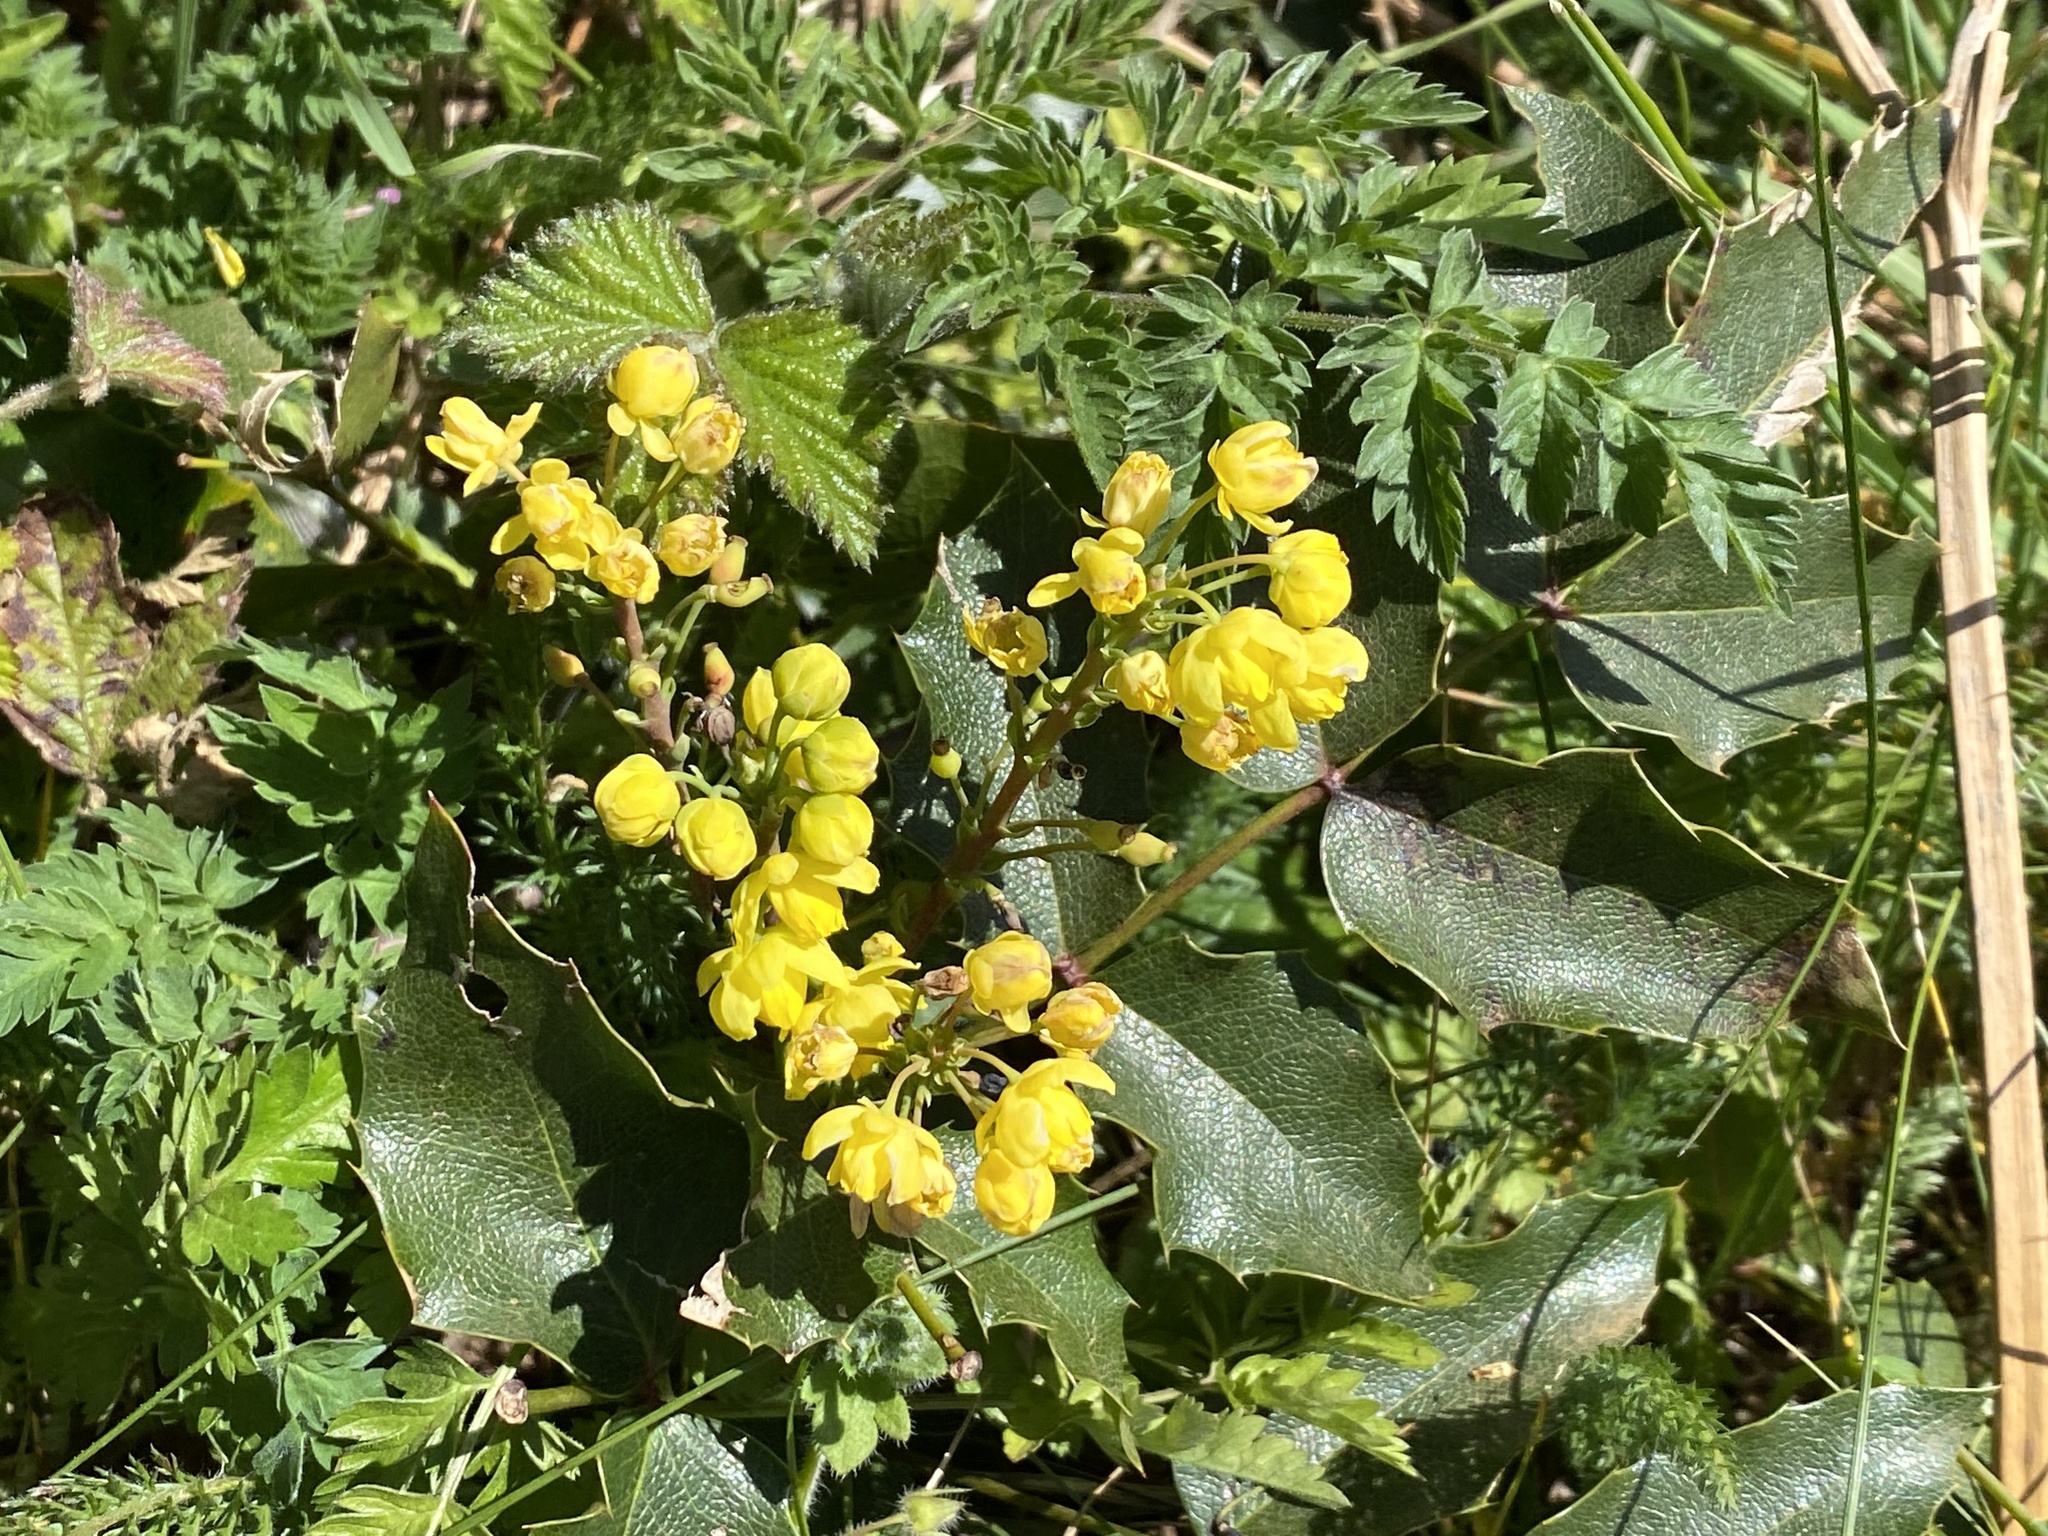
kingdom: Plantae
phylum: Tracheophyta
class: Magnoliopsida
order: Ranunculales
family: Berberidaceae
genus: Mahonia
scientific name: Mahonia aquifolium
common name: Oregon-grape
